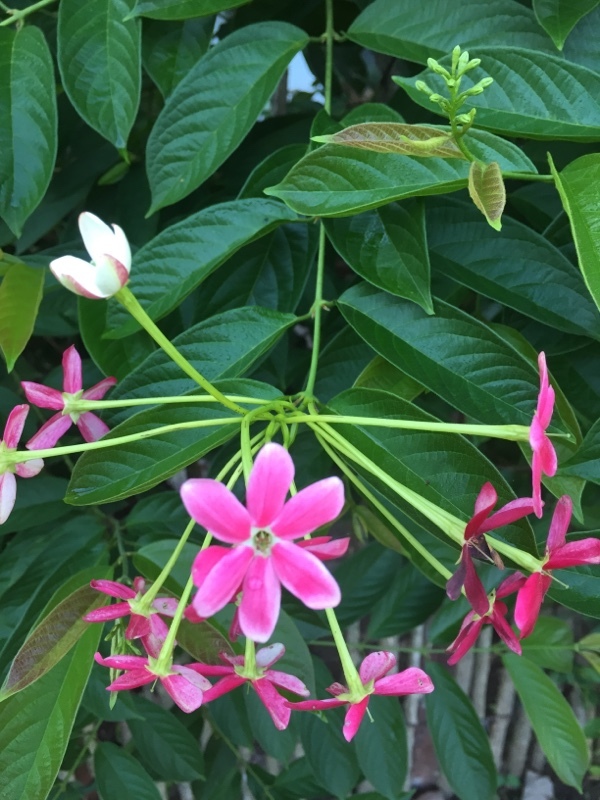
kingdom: Plantae
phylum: Tracheophyta
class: Magnoliopsida
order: Myrtales
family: Combretaceae
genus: Combretum
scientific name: Combretum indicum
